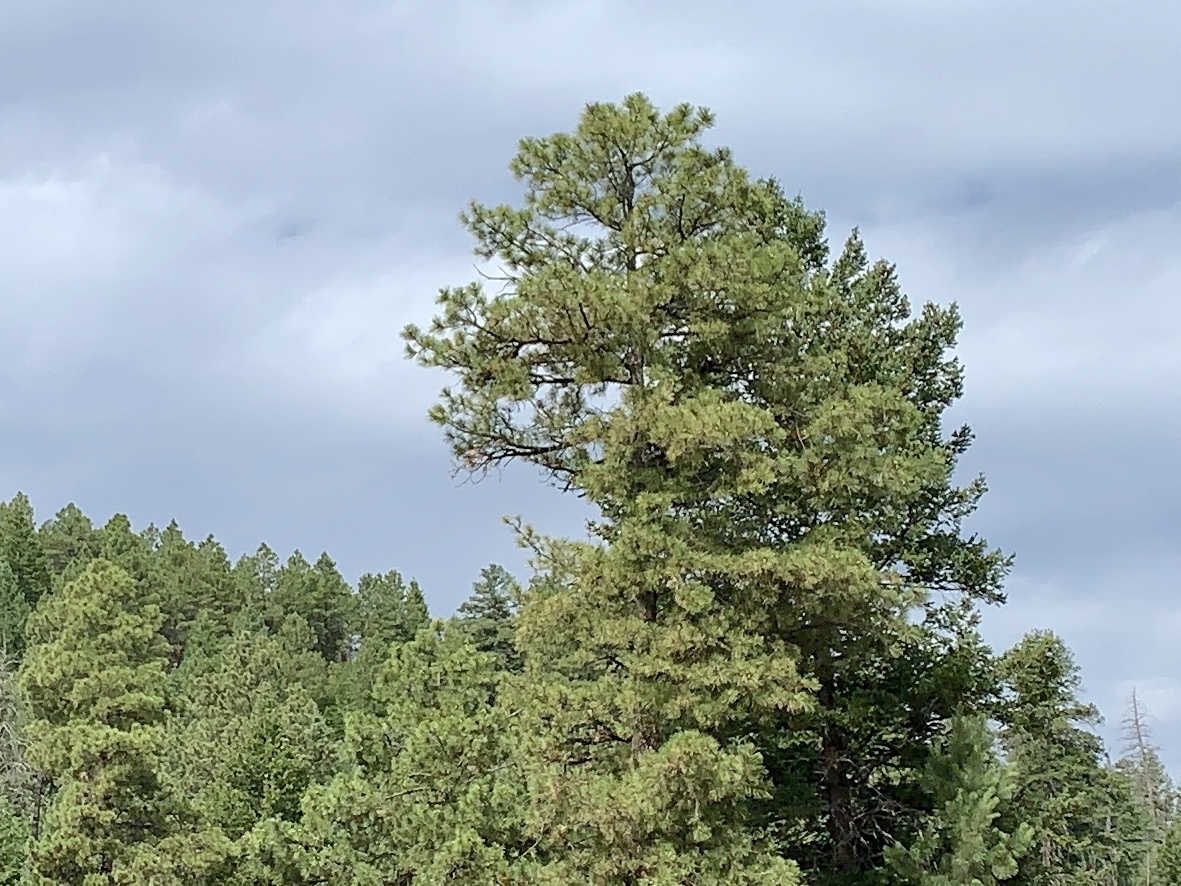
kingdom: Plantae
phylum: Tracheophyta
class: Pinopsida
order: Pinales
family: Pinaceae
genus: Pinus
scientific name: Pinus ponderosa
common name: Western yellow-pine
